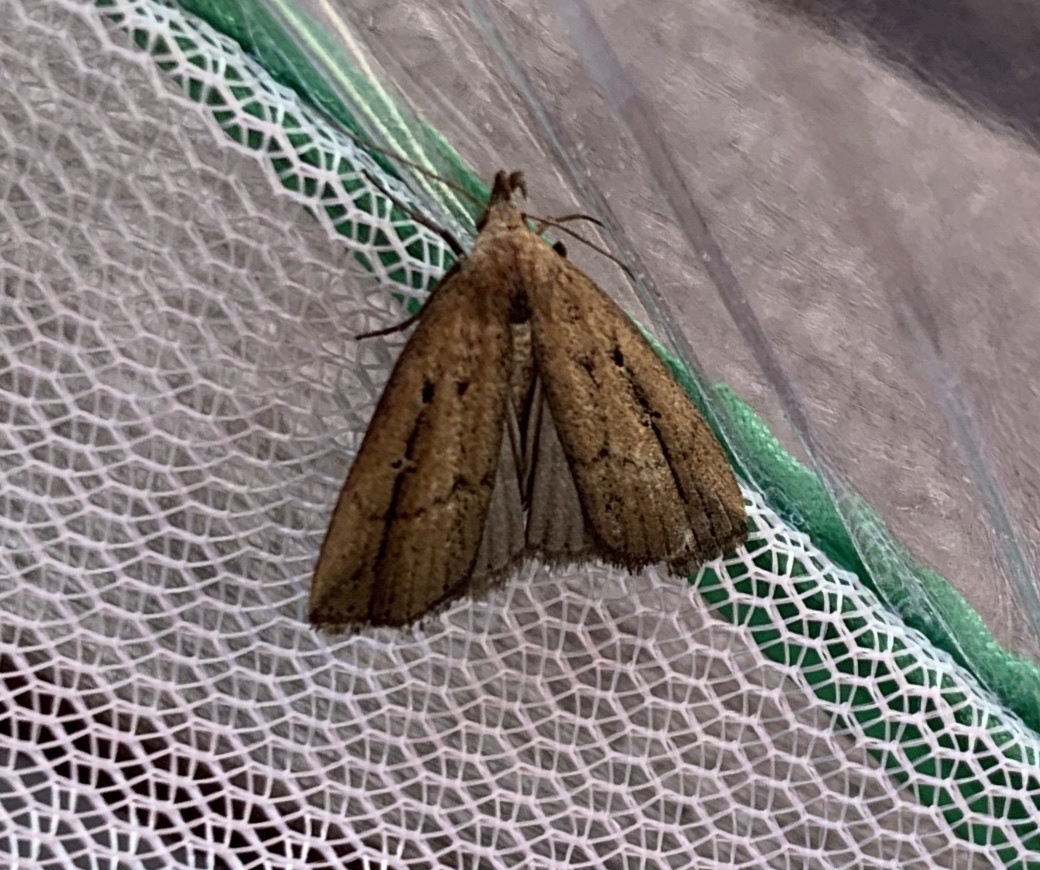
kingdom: Animalia
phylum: Arthropoda
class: Insecta
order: Lepidoptera
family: Erebidae
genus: Macrochilo
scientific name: Macrochilo orciferalis
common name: Bronzy owlet
